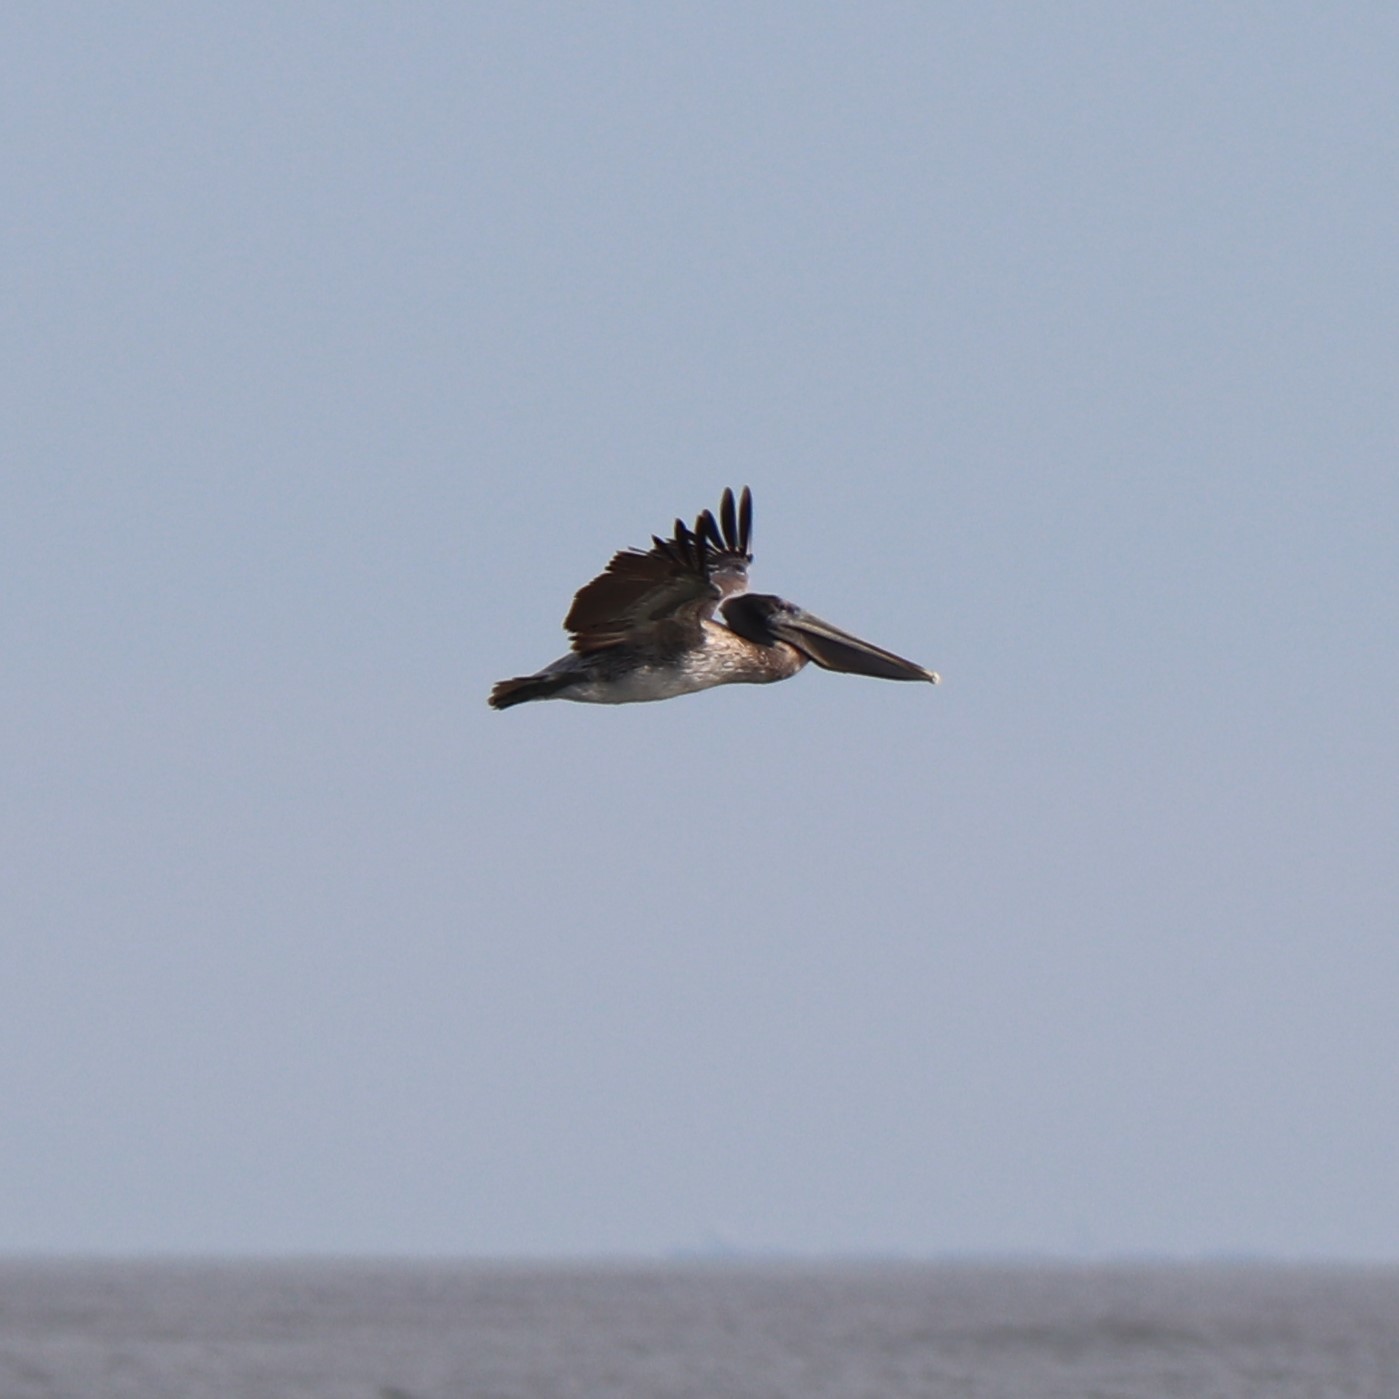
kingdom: Animalia
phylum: Chordata
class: Aves
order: Pelecaniformes
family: Pelecanidae
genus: Pelecanus
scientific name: Pelecanus occidentalis
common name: Brown pelican
